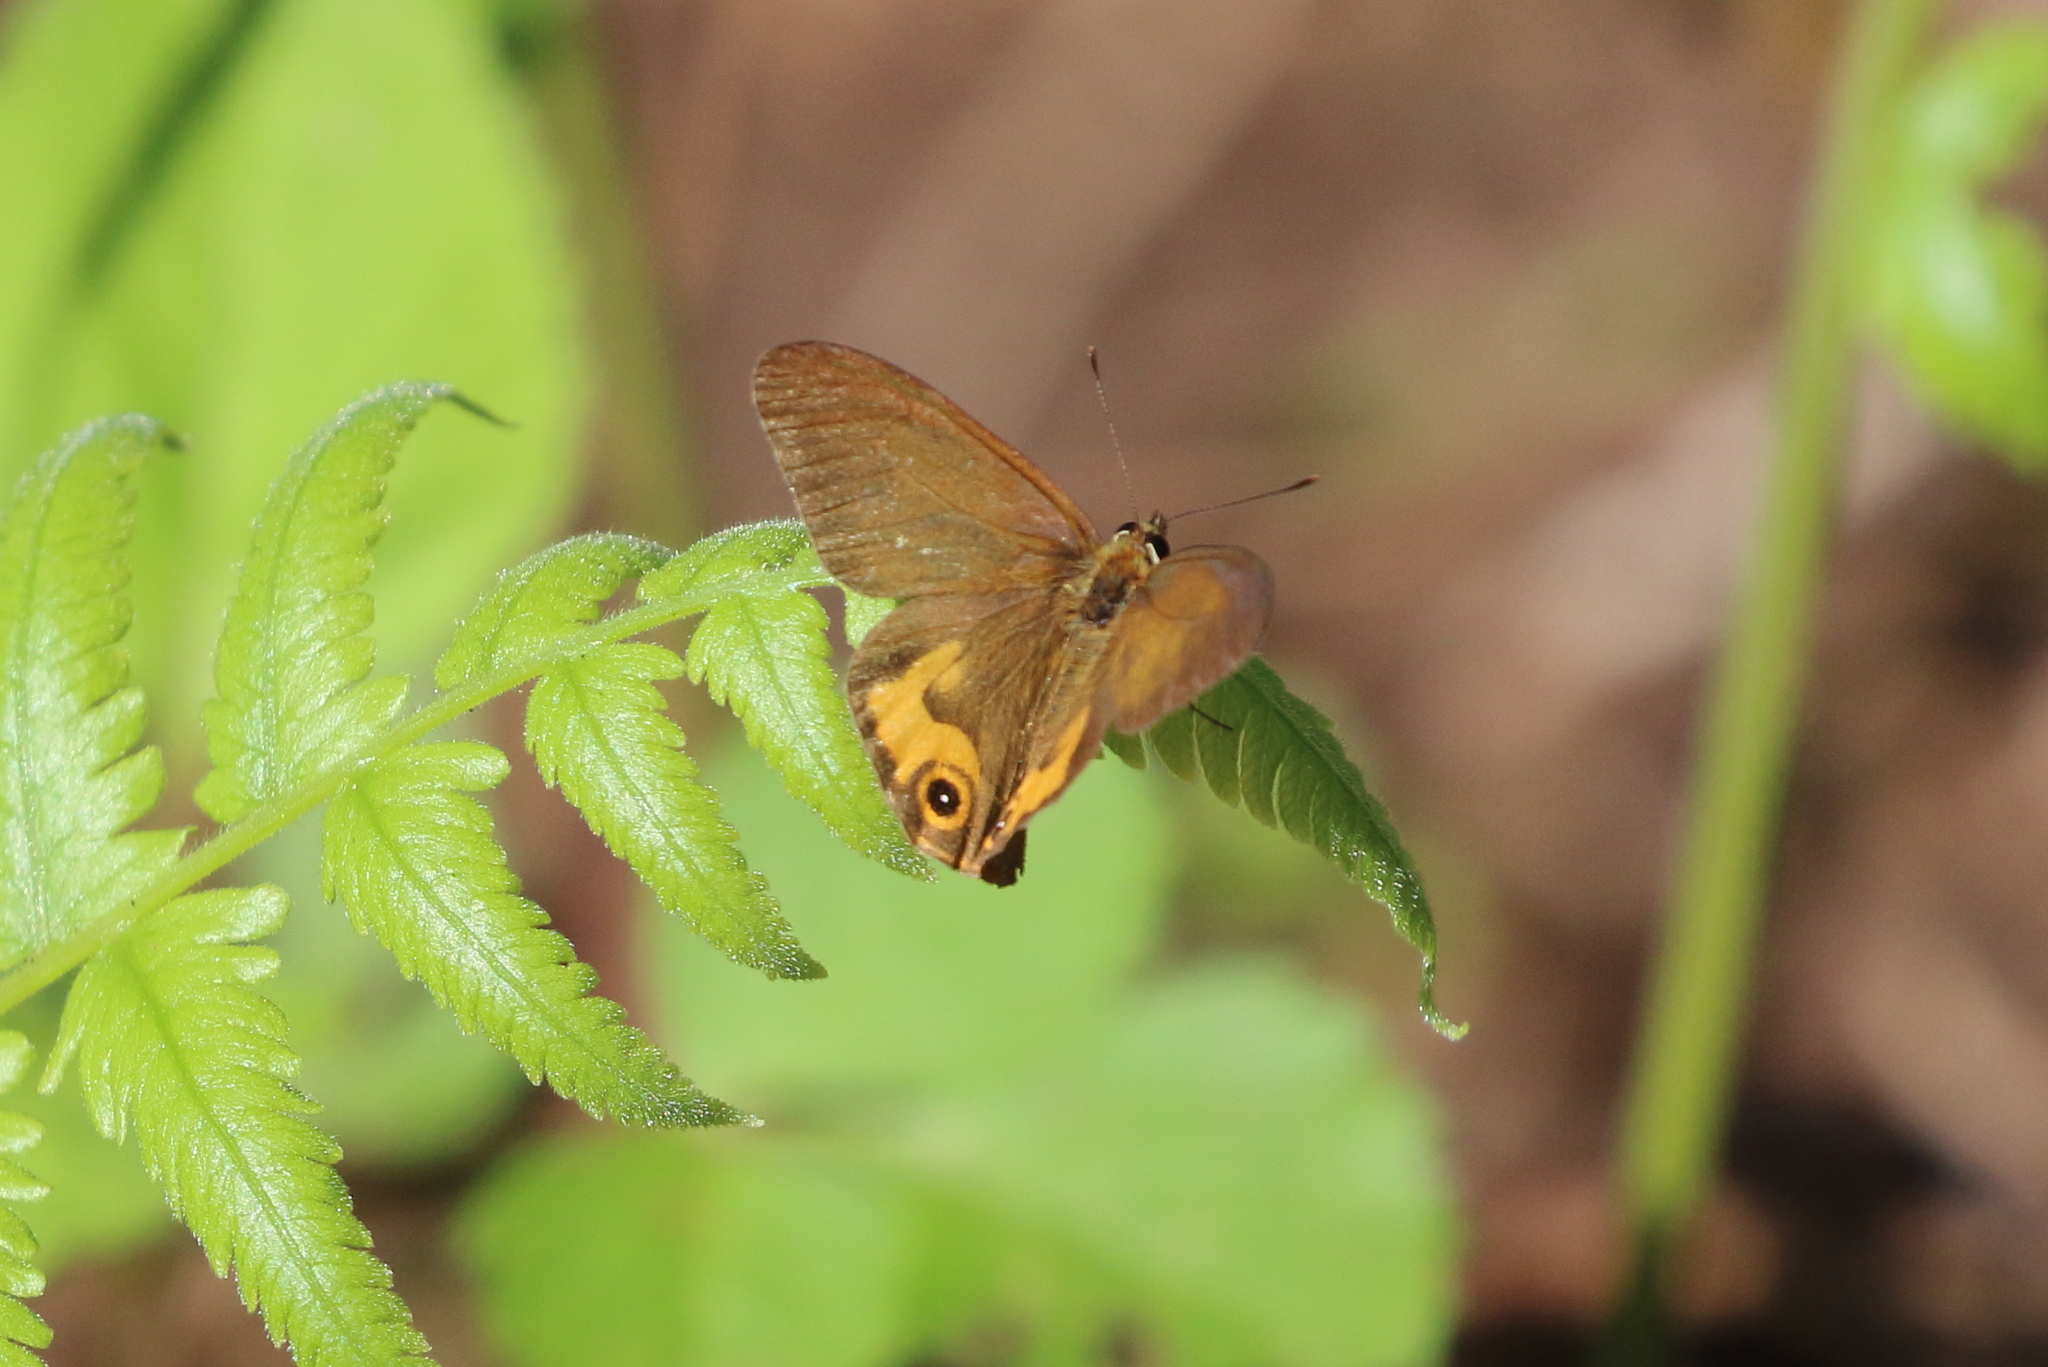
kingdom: Animalia
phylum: Arthropoda
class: Insecta
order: Lepidoptera
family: Nymphalidae
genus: Hypocysta
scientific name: Hypocysta metirius
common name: Brown ringlet
